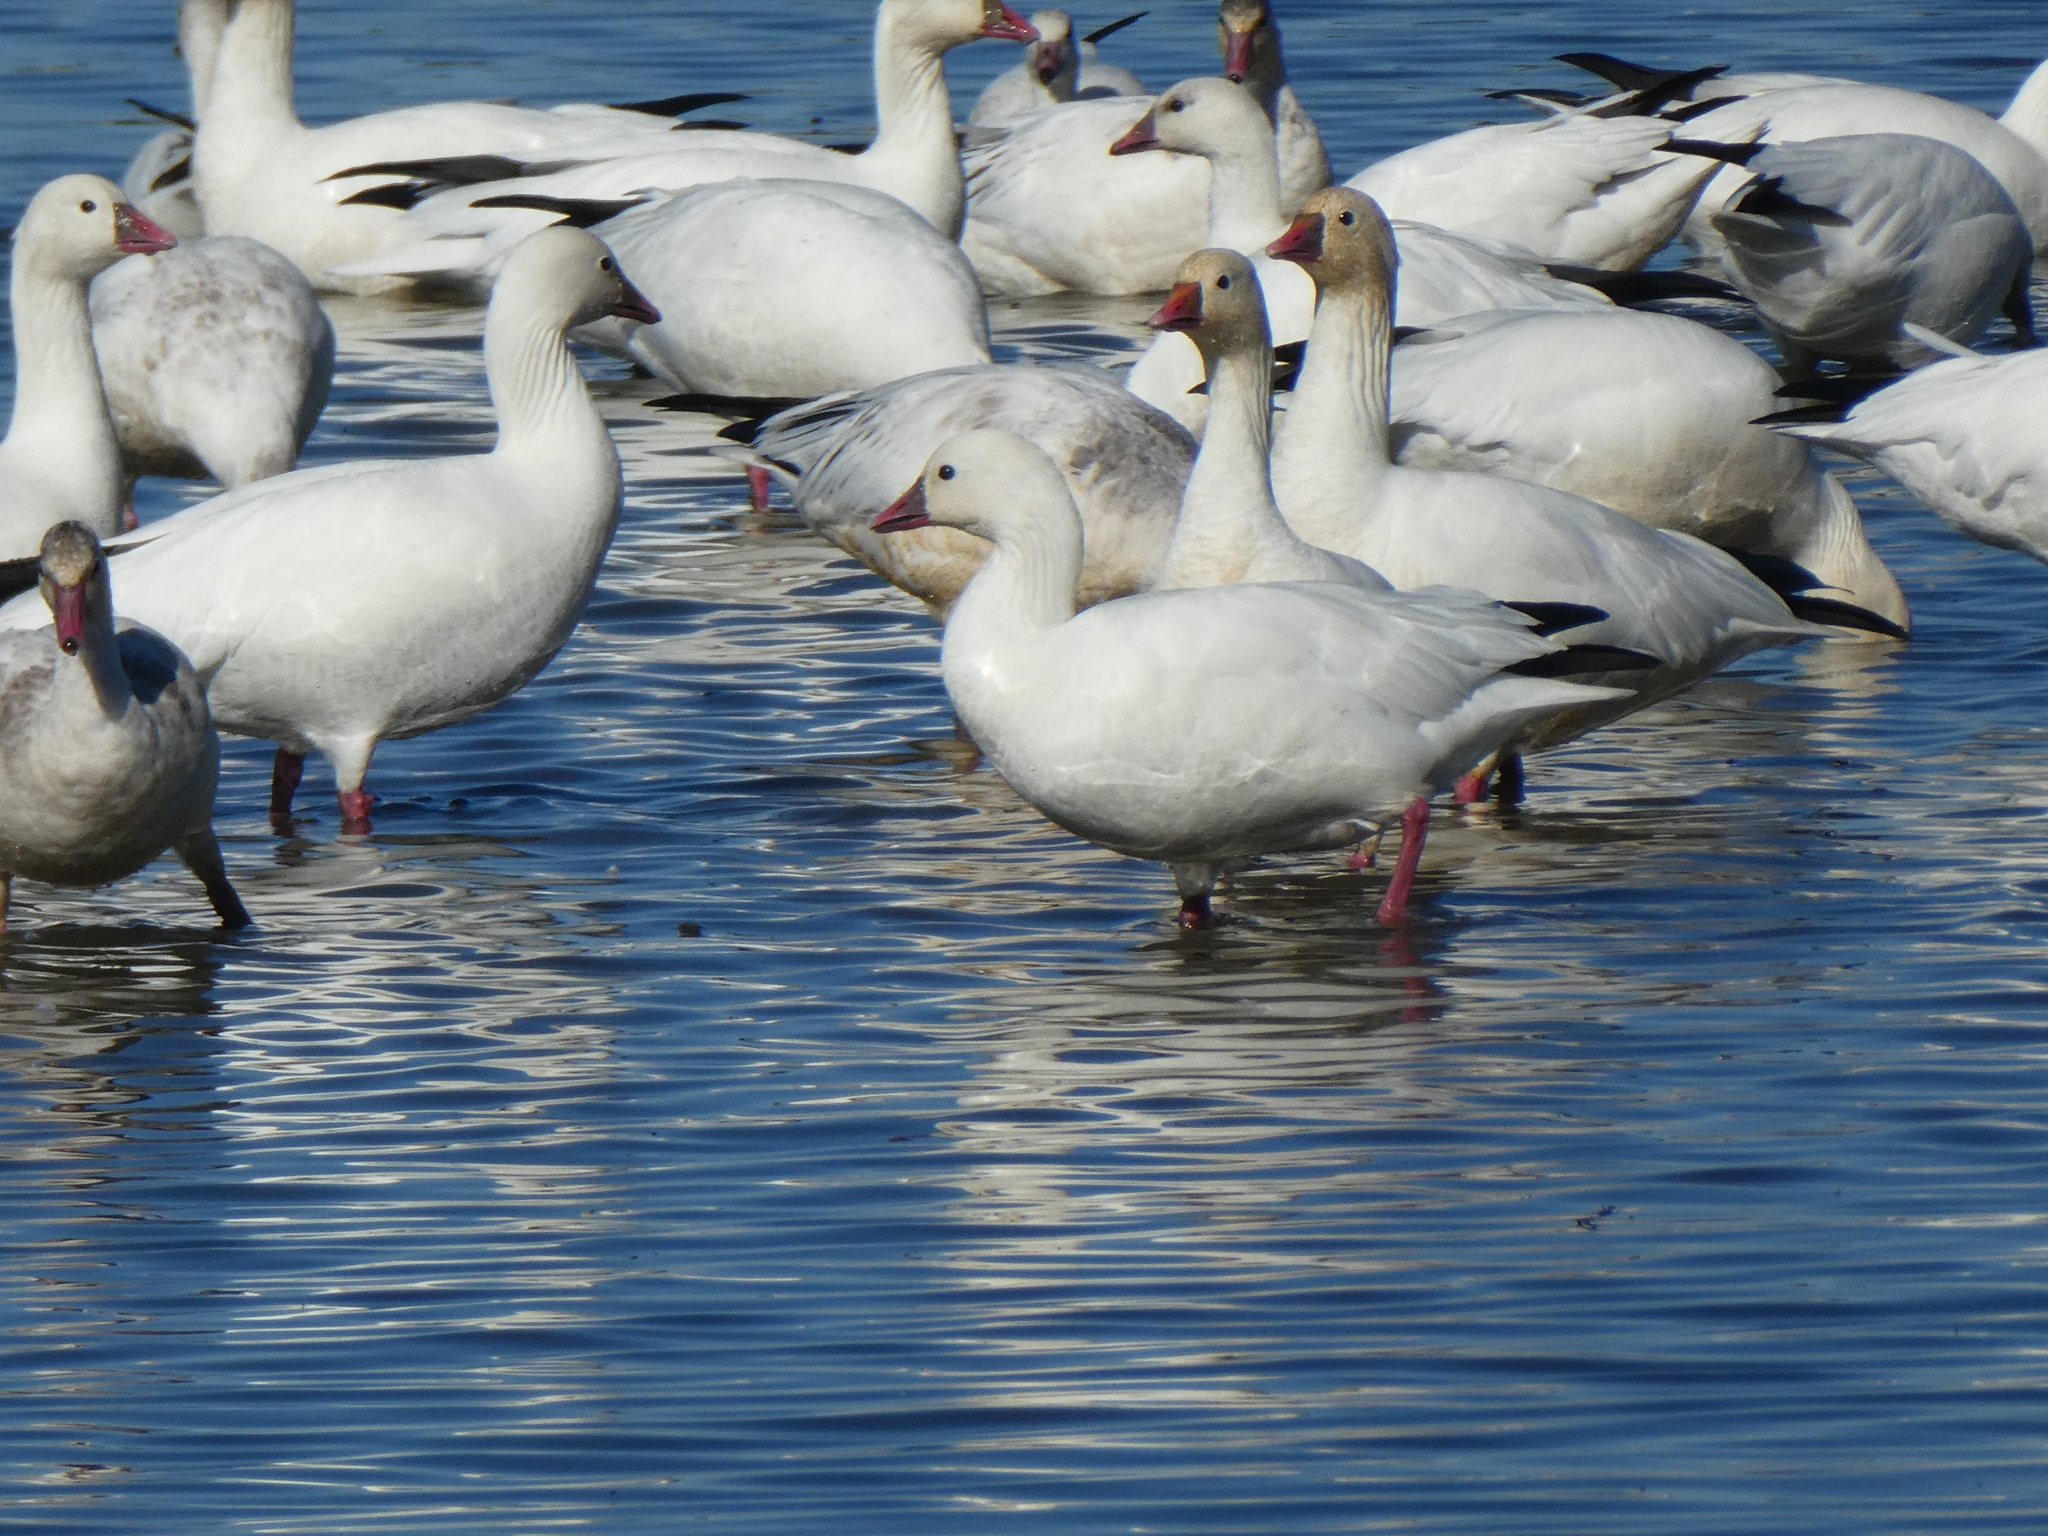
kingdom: Animalia
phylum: Chordata
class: Aves
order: Anseriformes
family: Anatidae
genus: Anser
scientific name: Anser rossii
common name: Ross's goose
